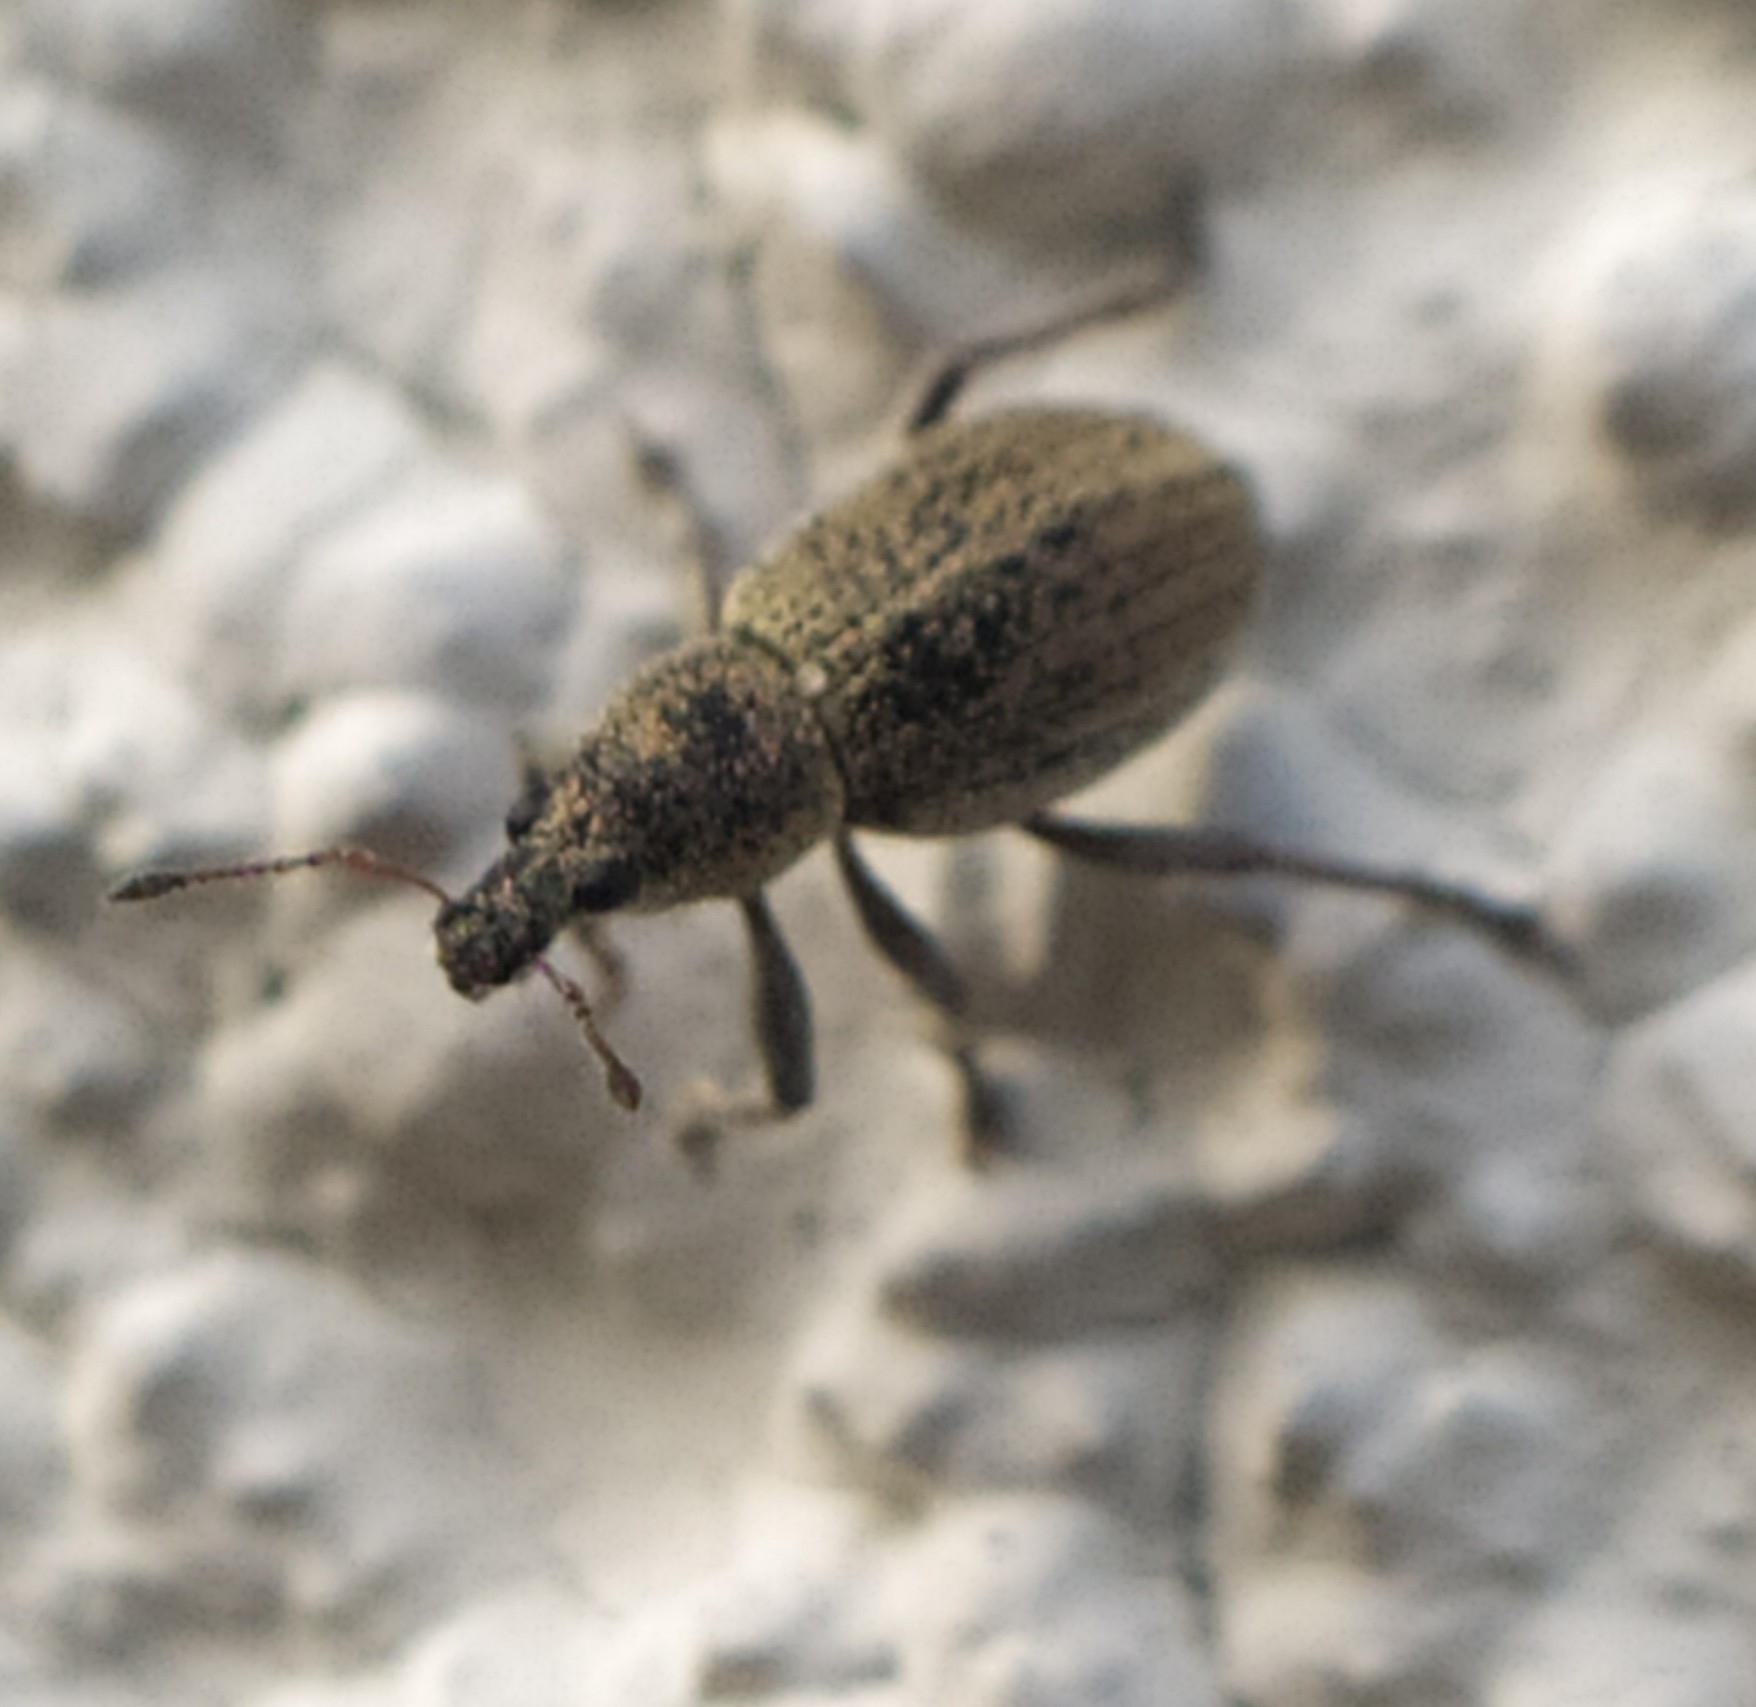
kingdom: Animalia
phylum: Arthropoda
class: Insecta
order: Coleoptera
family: Curculionidae
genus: Sciaphobus
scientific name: Sciaphobus squalidus
